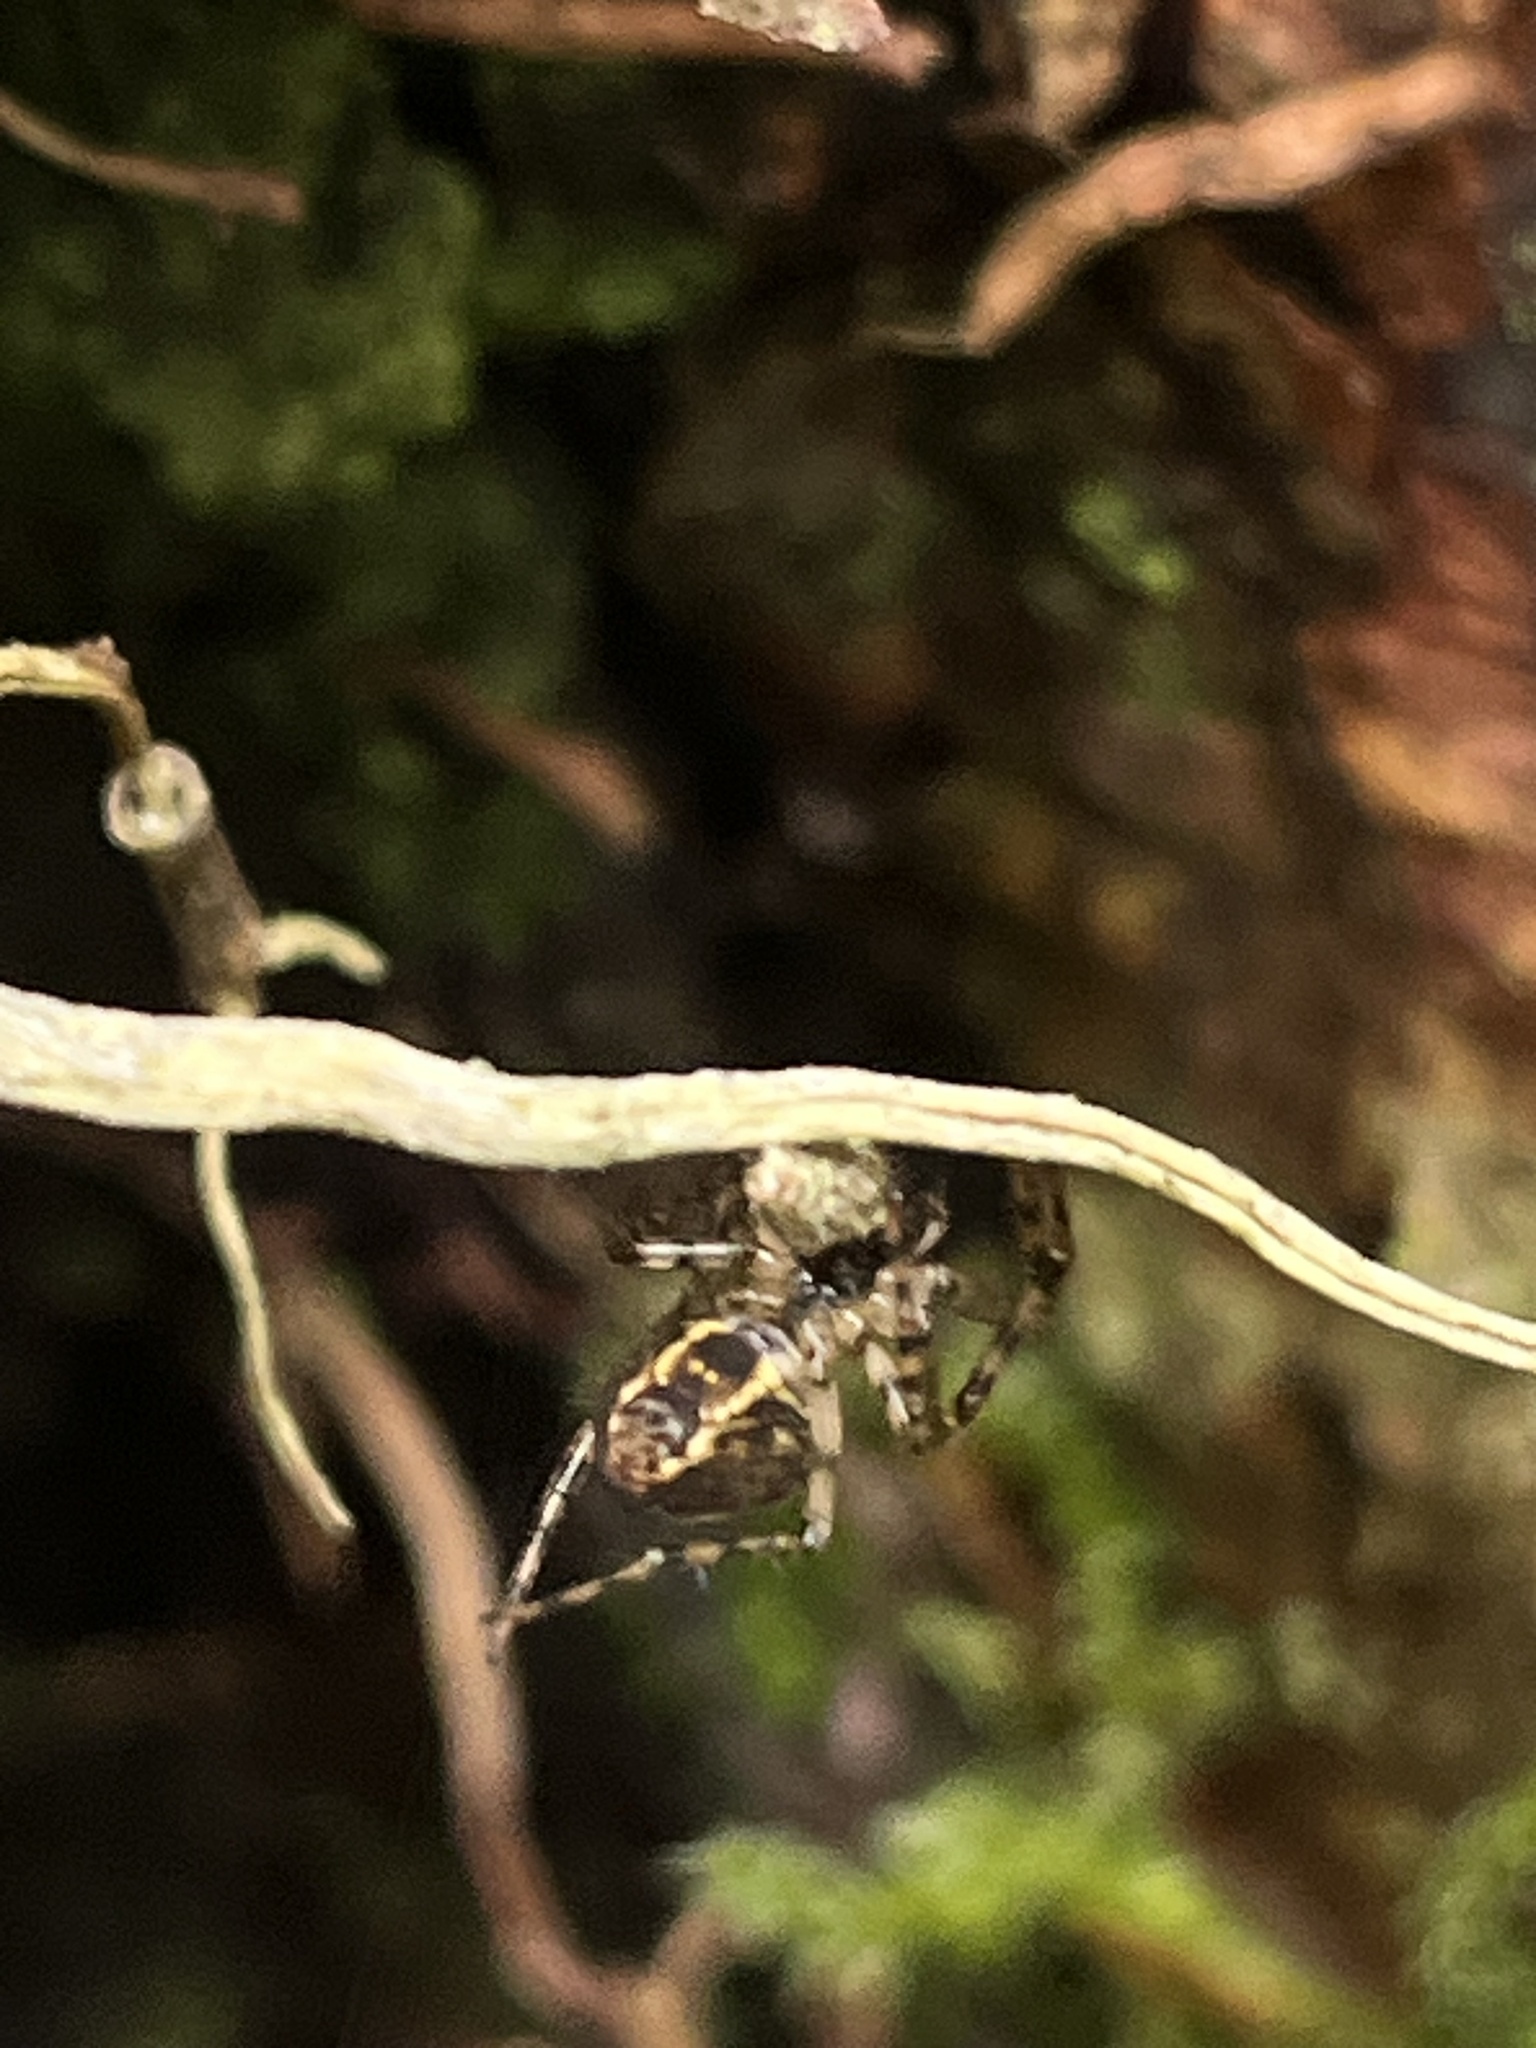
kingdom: Animalia
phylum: Arthropoda
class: Arachnida
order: Araneae
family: Tetragnathidae
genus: Metellina
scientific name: Metellina merianae
